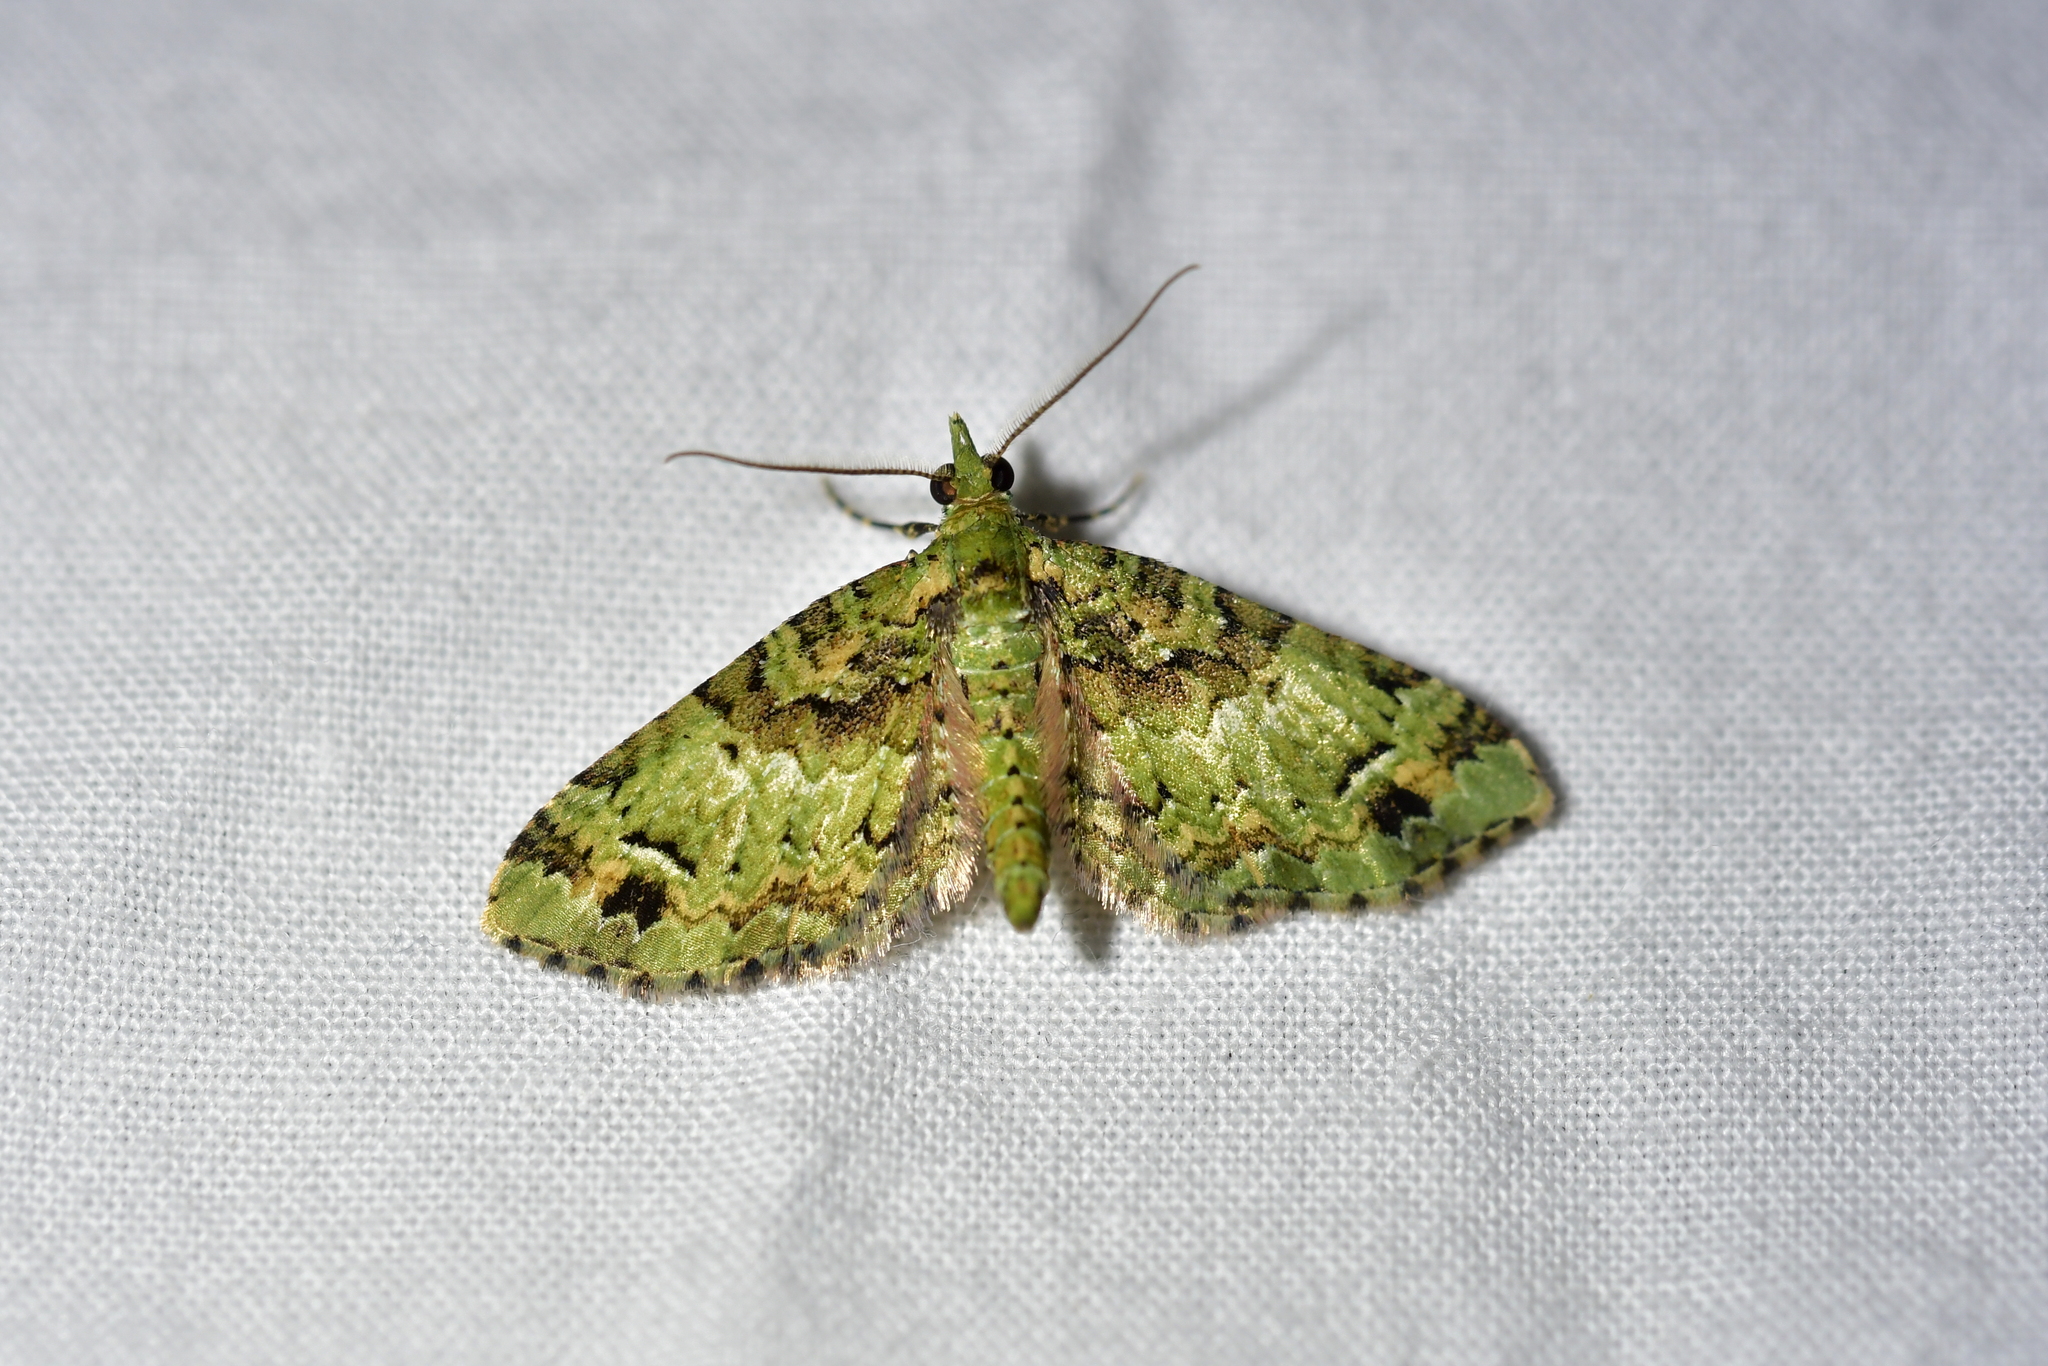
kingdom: Animalia
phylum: Arthropoda
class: Insecta
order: Lepidoptera
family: Geometridae
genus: Pasiphila
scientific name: Pasiphila bilineolata
